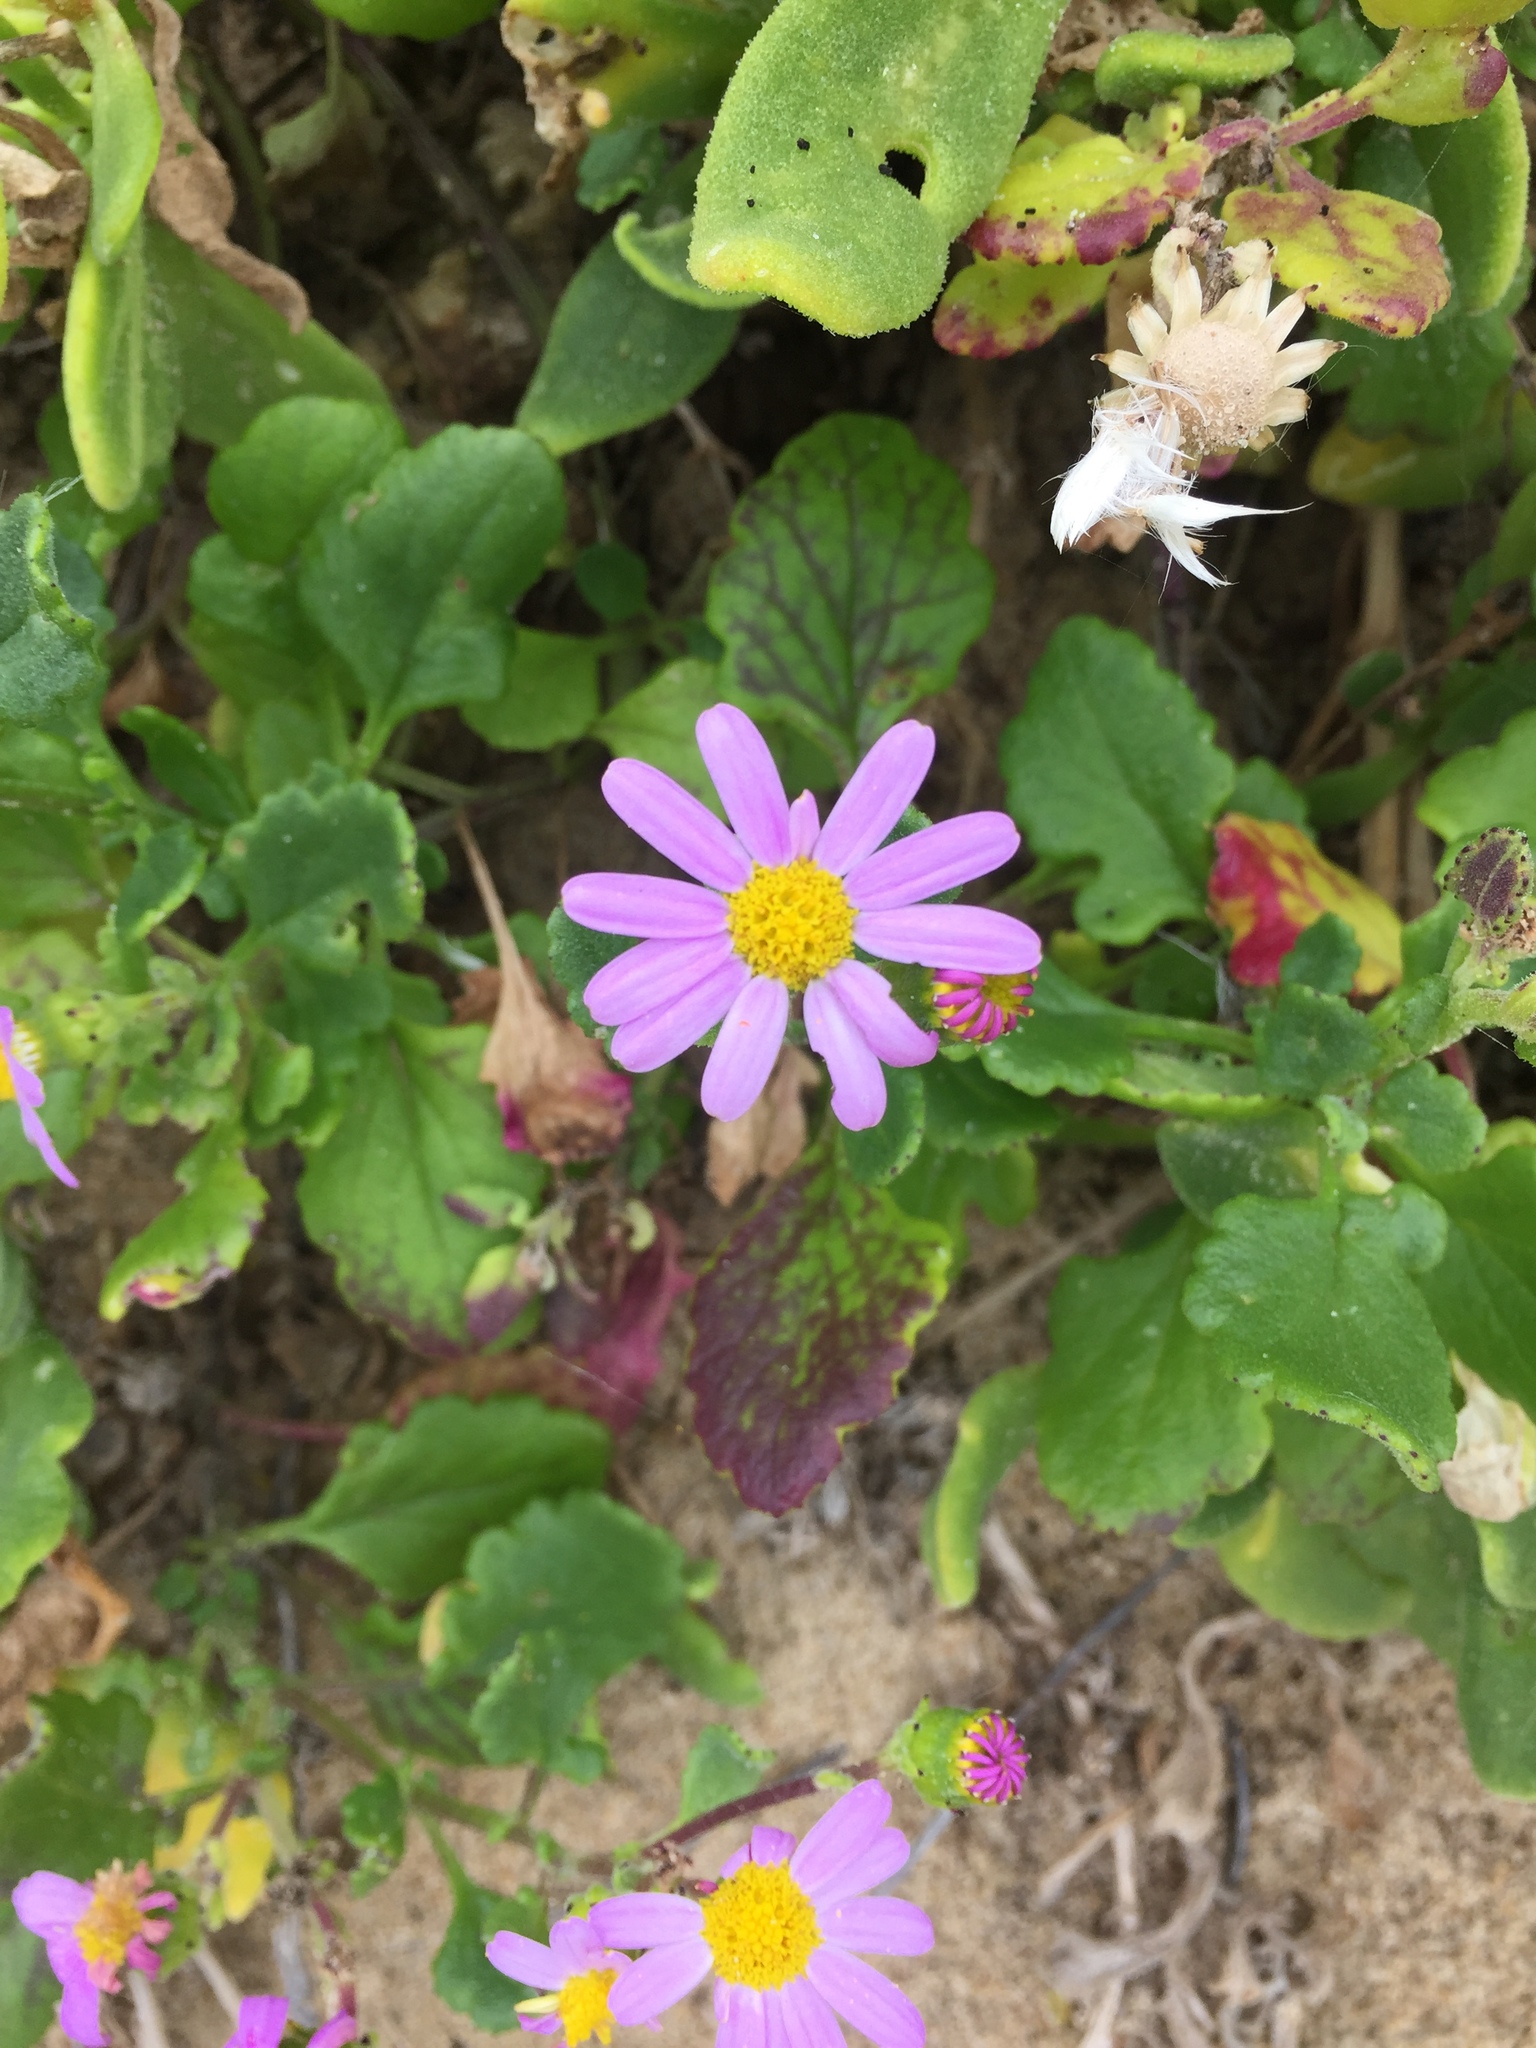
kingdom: Plantae
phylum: Tracheophyta
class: Magnoliopsida
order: Asterales
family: Asteraceae
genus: Senecio
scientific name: Senecio elegans
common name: Purple groundsel
